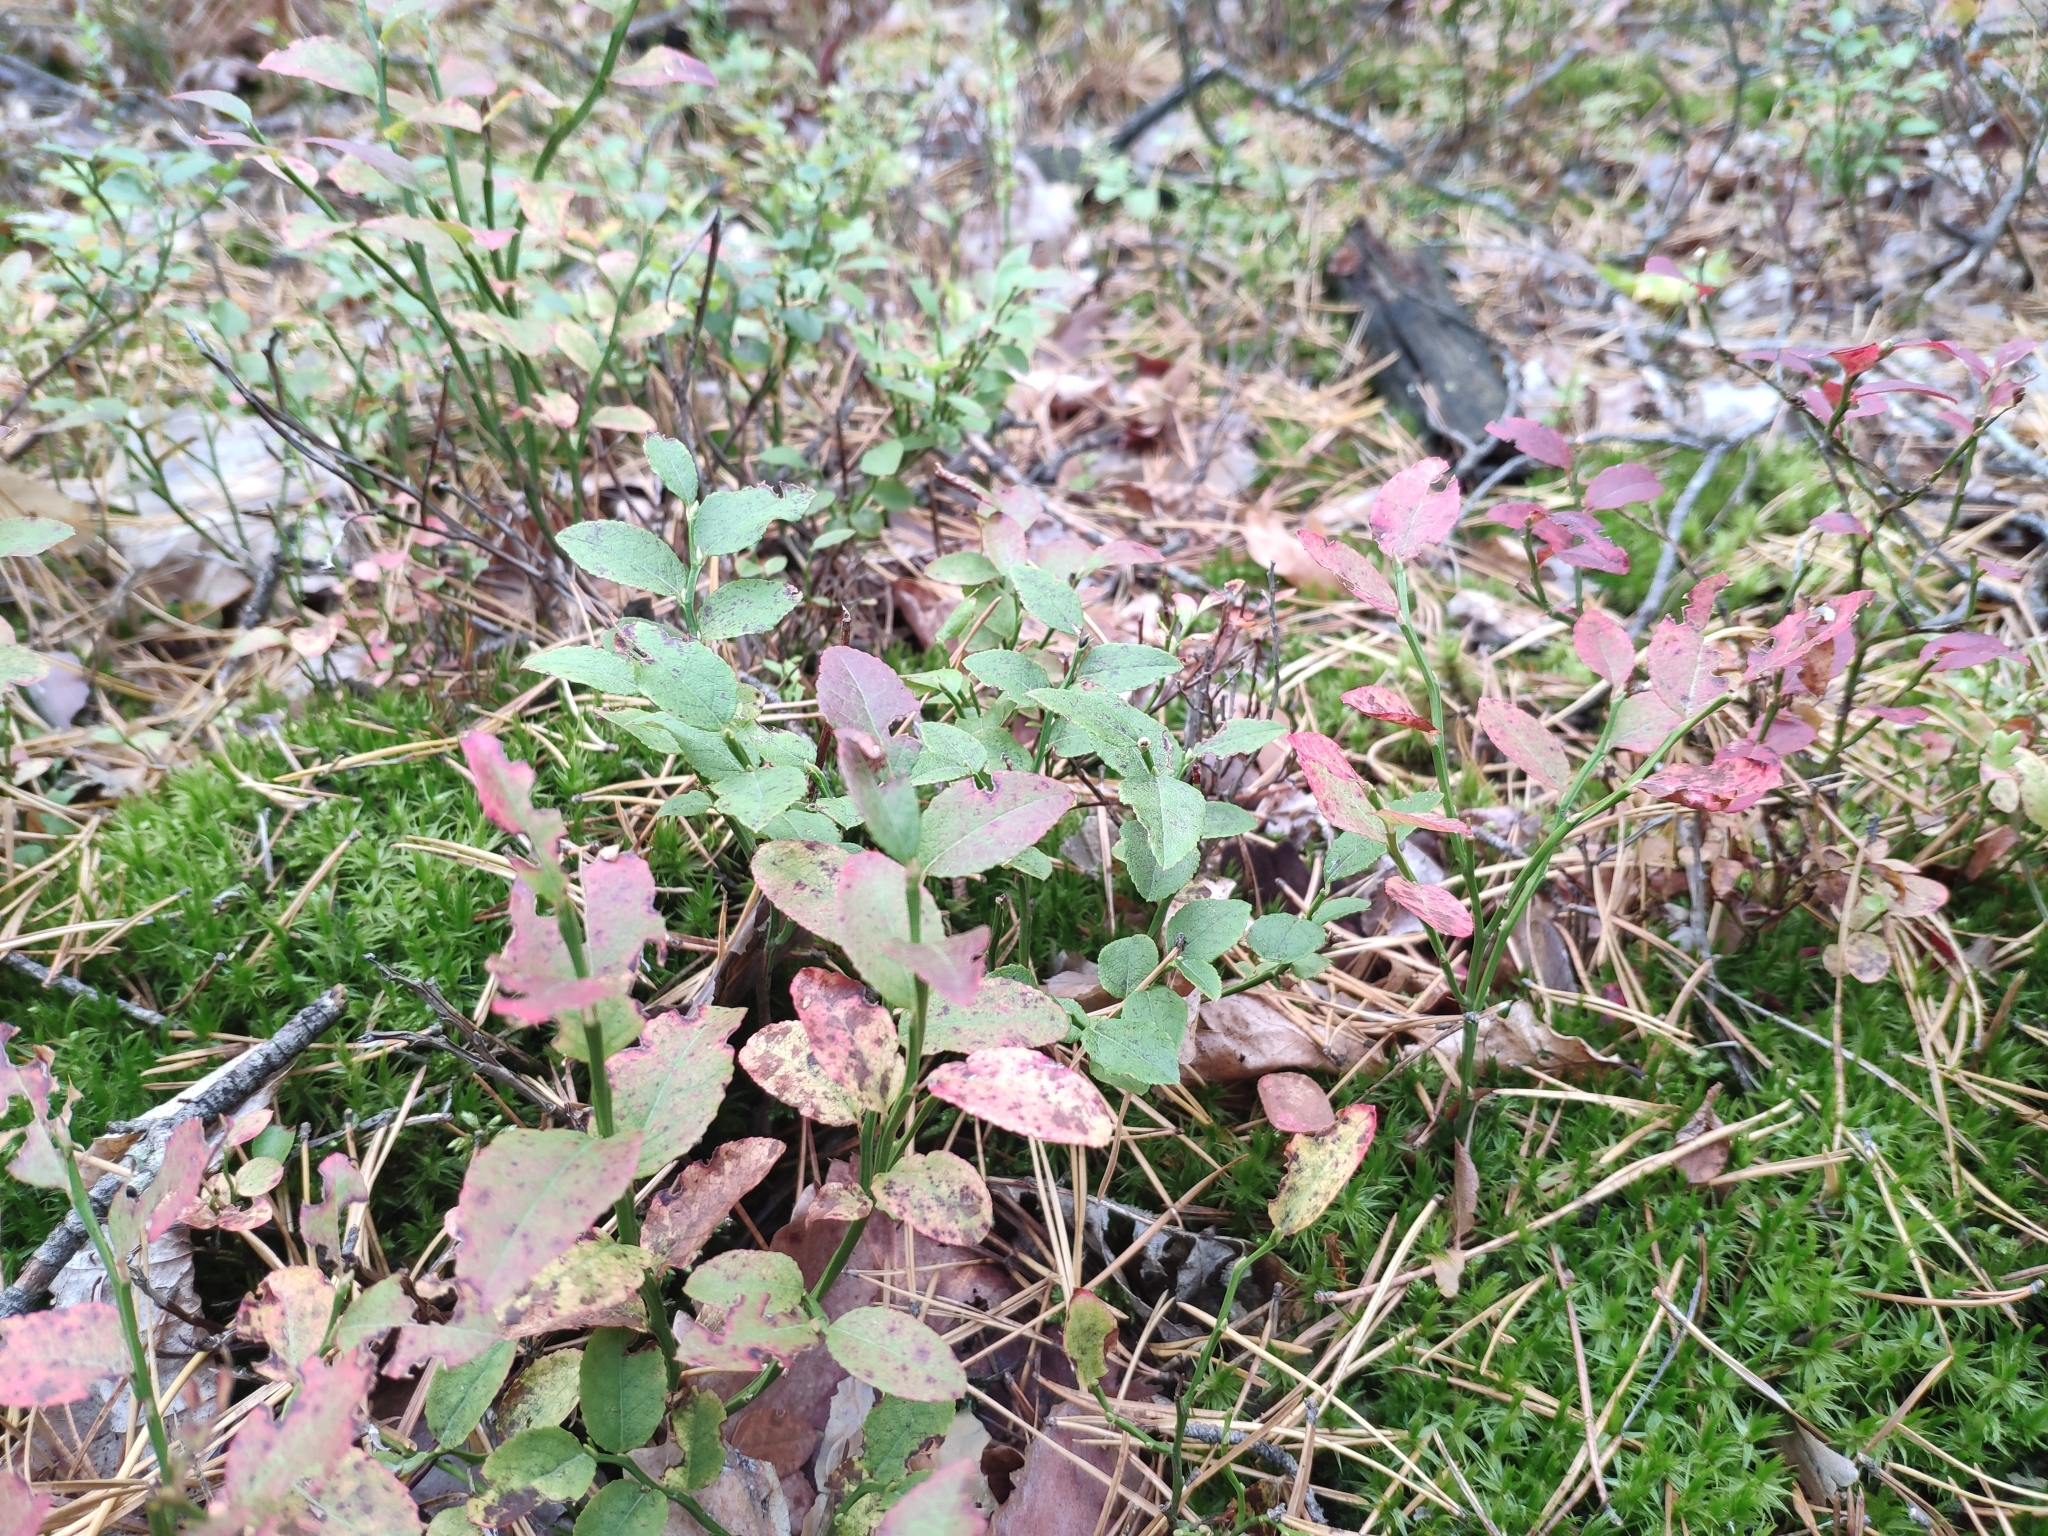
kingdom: Plantae
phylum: Tracheophyta
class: Magnoliopsida
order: Ericales
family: Ericaceae
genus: Vaccinium
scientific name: Vaccinium myrtillus
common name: Bilberry
